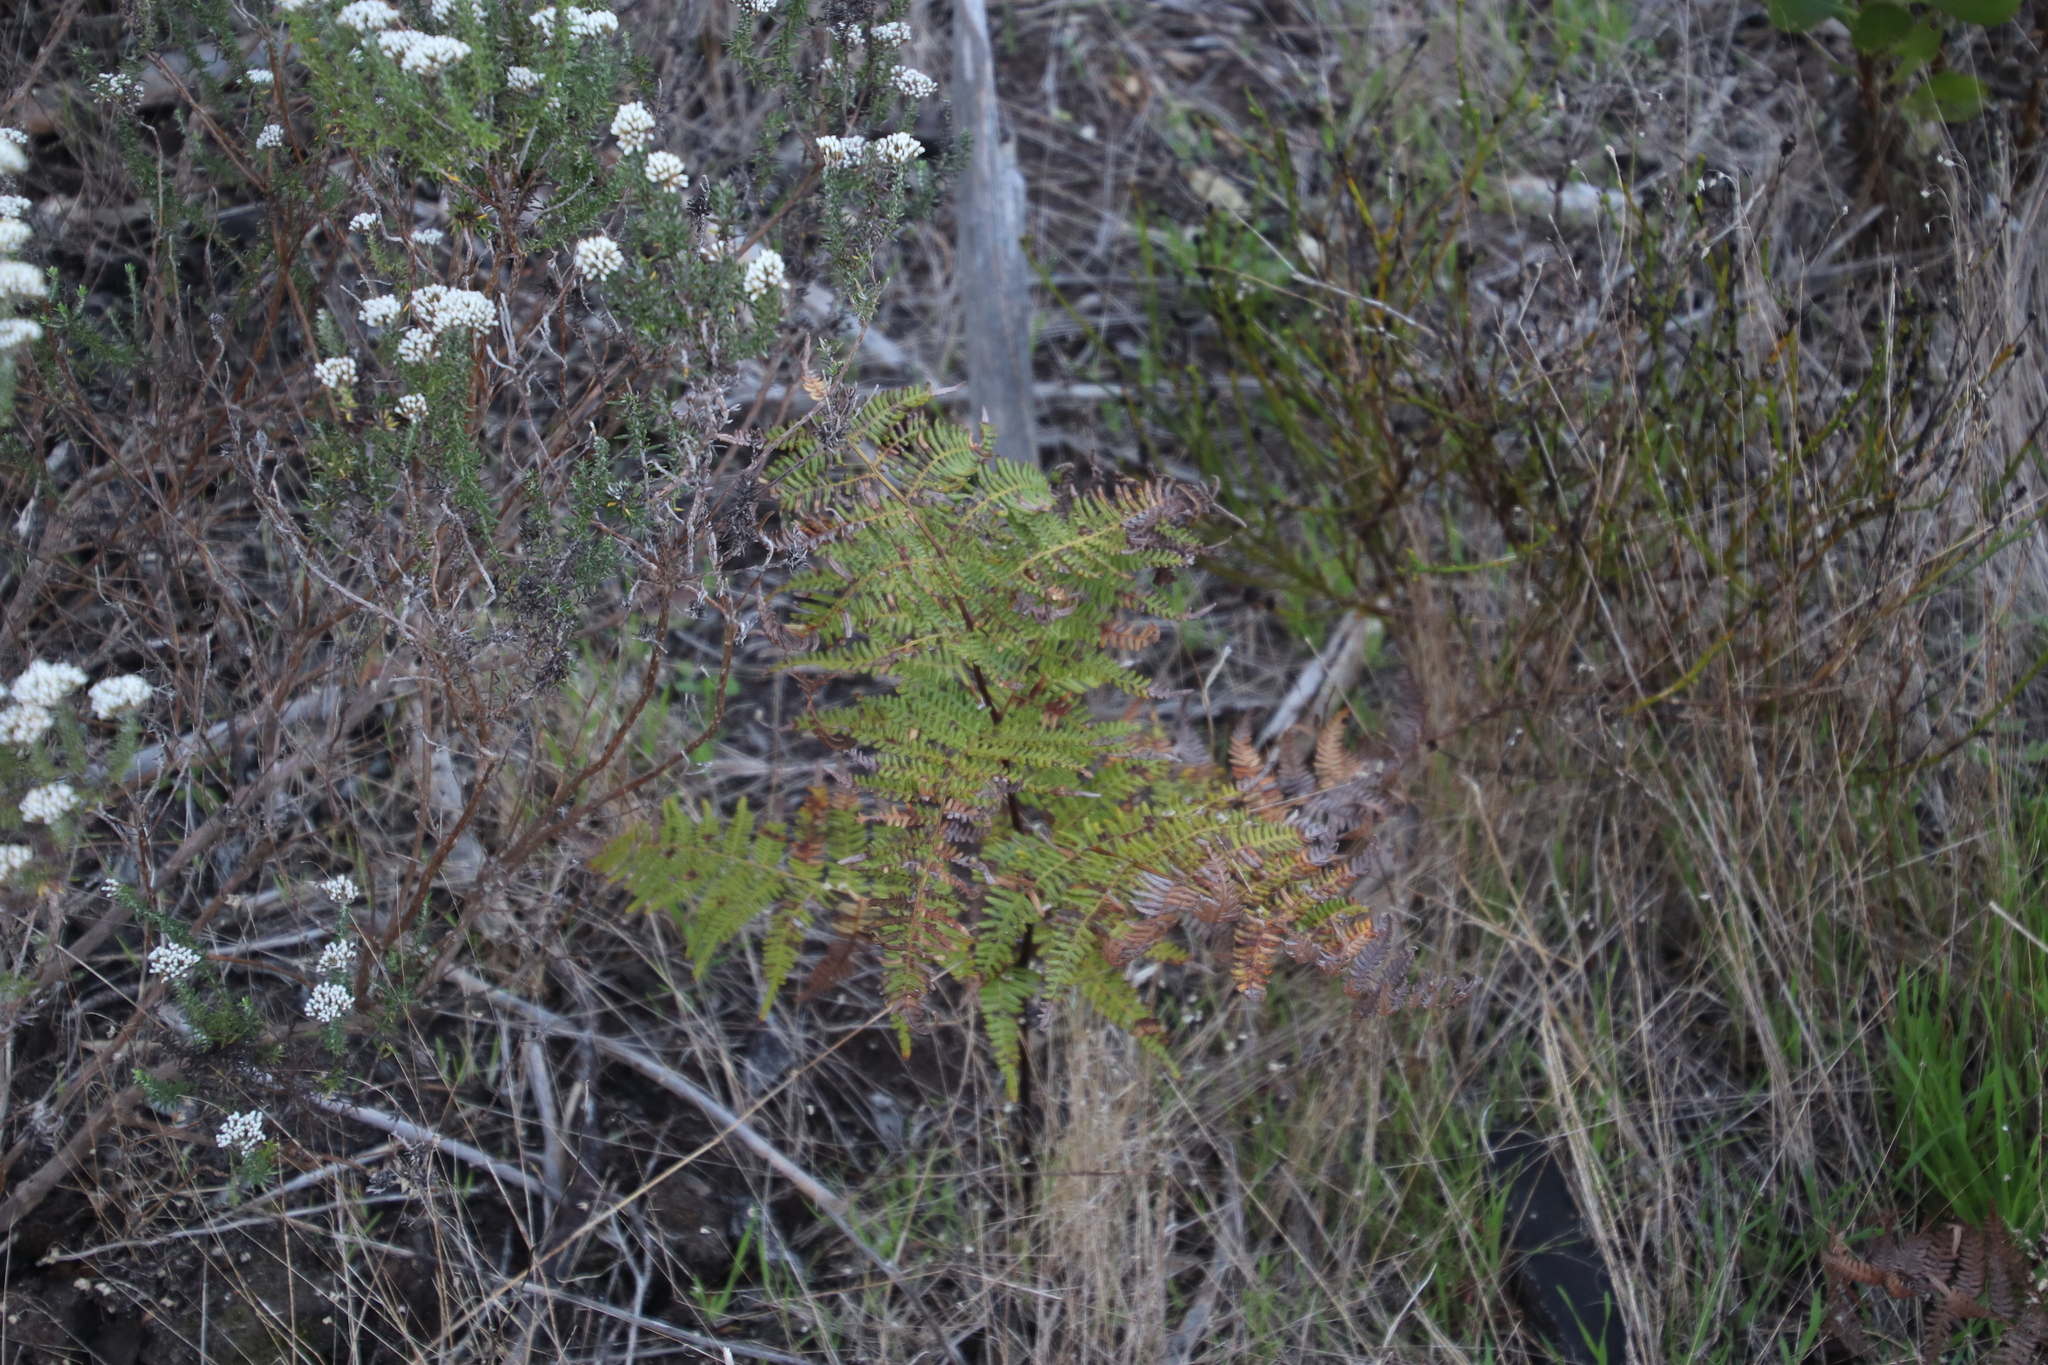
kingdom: Plantae
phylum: Tracheophyta
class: Polypodiopsida
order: Polypodiales
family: Dennstaedtiaceae
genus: Pteridium
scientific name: Pteridium aquilinum
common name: Bracken
